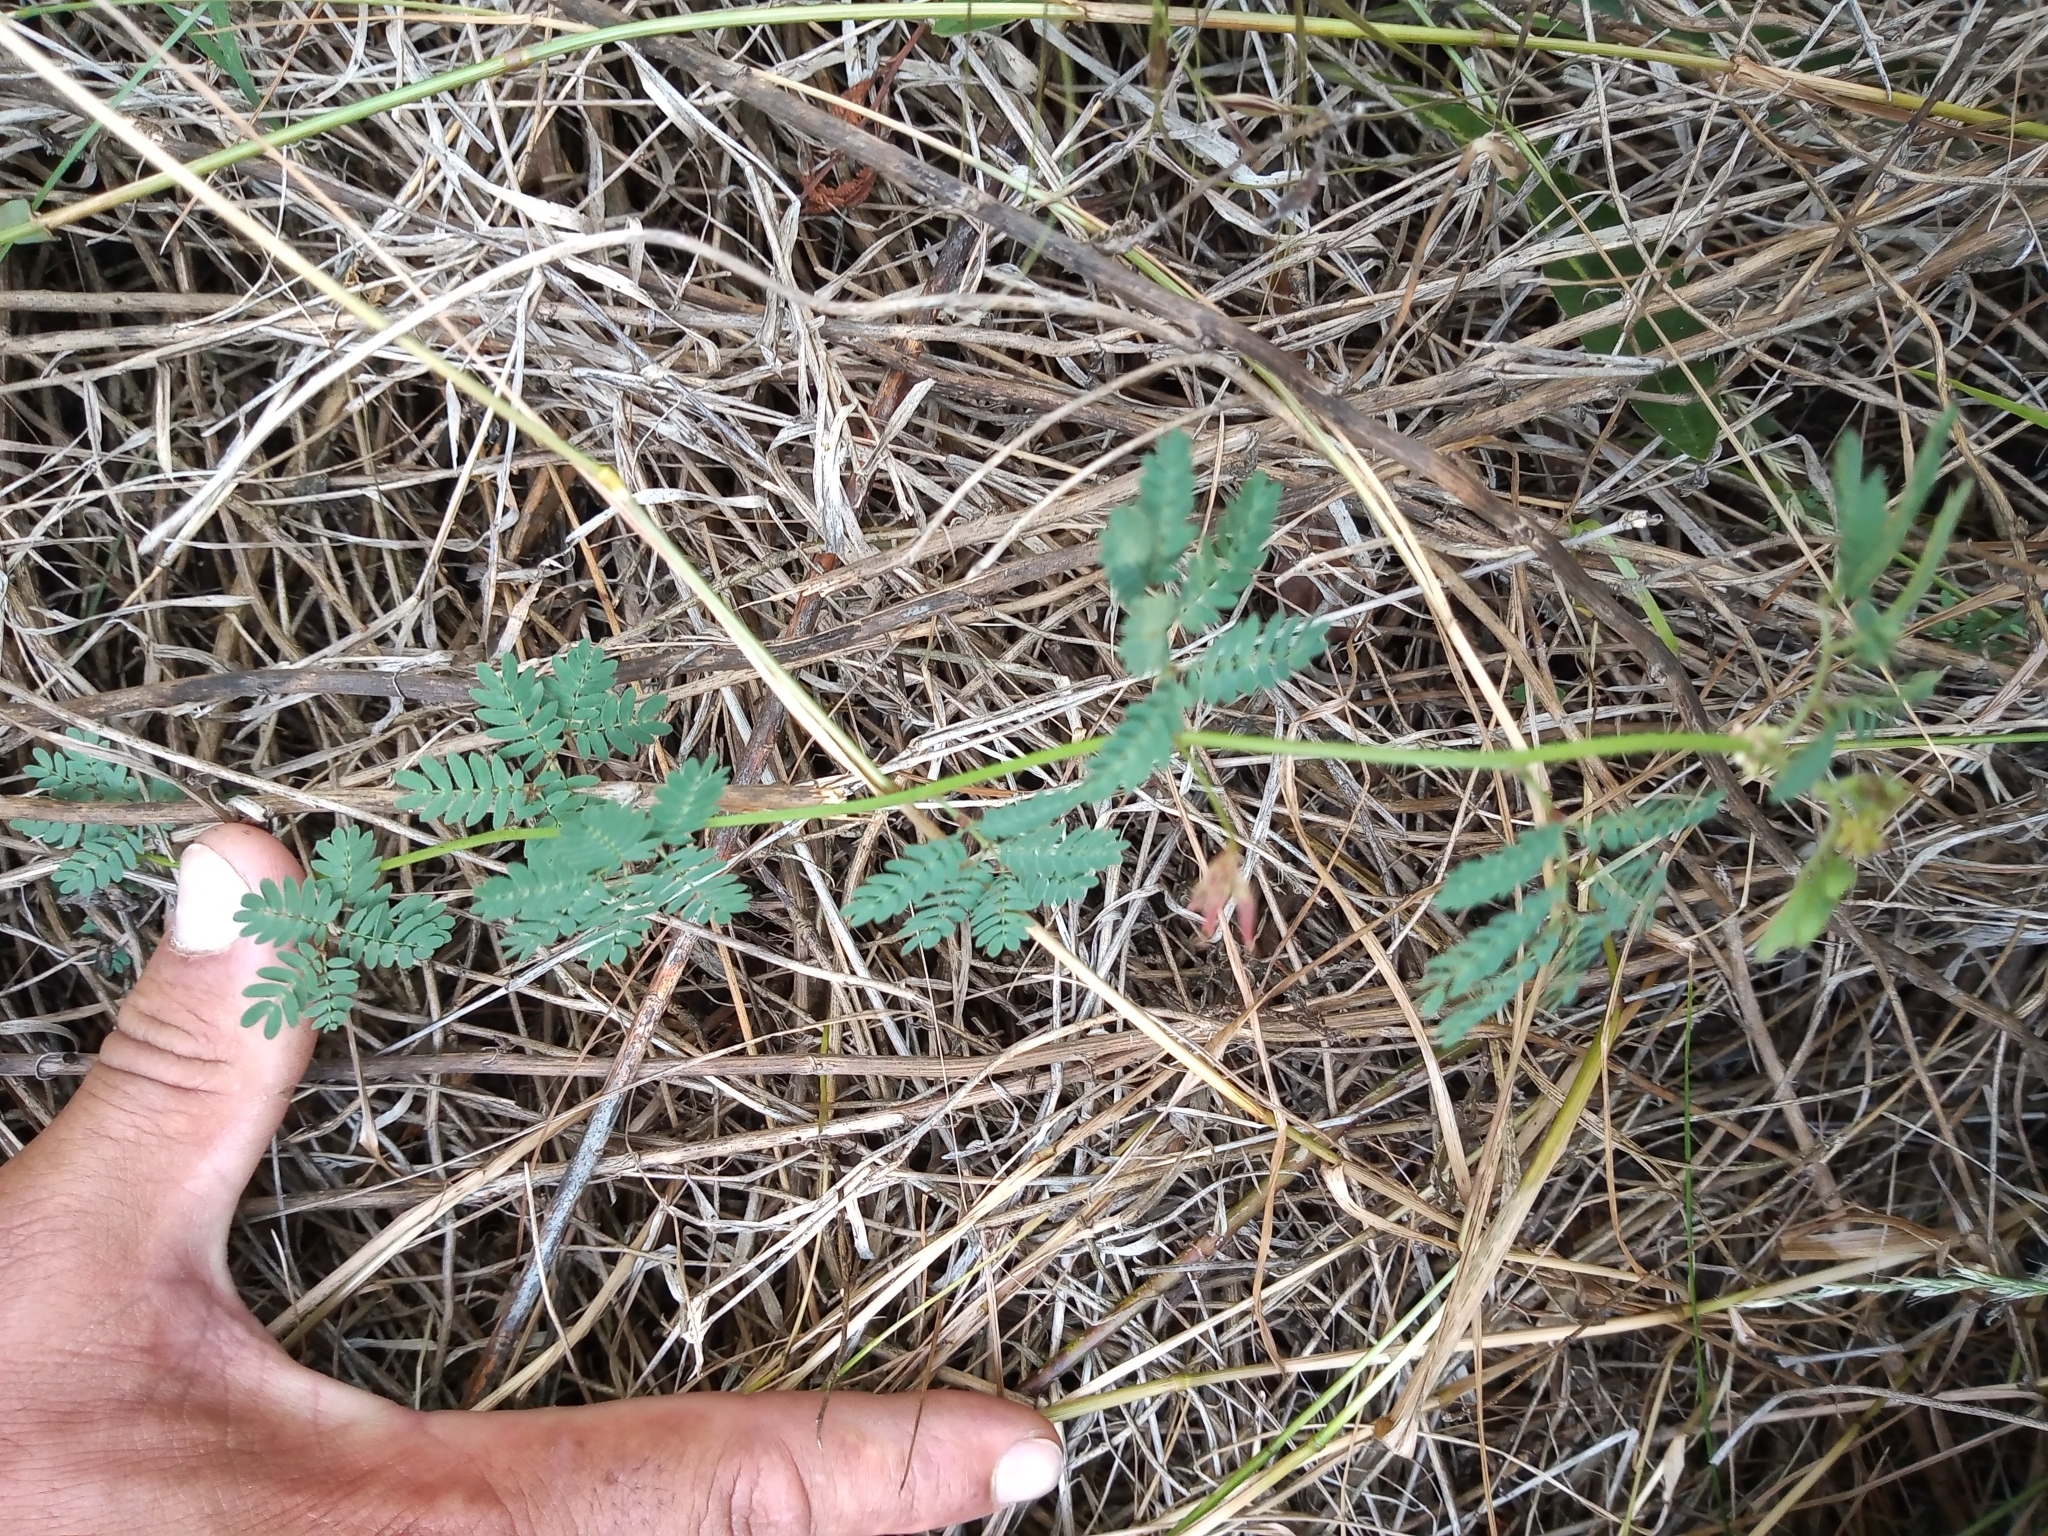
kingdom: Plantae
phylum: Tracheophyta
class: Magnoliopsida
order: Fabales
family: Fabaceae
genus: Desmanthus
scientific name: Desmanthus acuminatus
